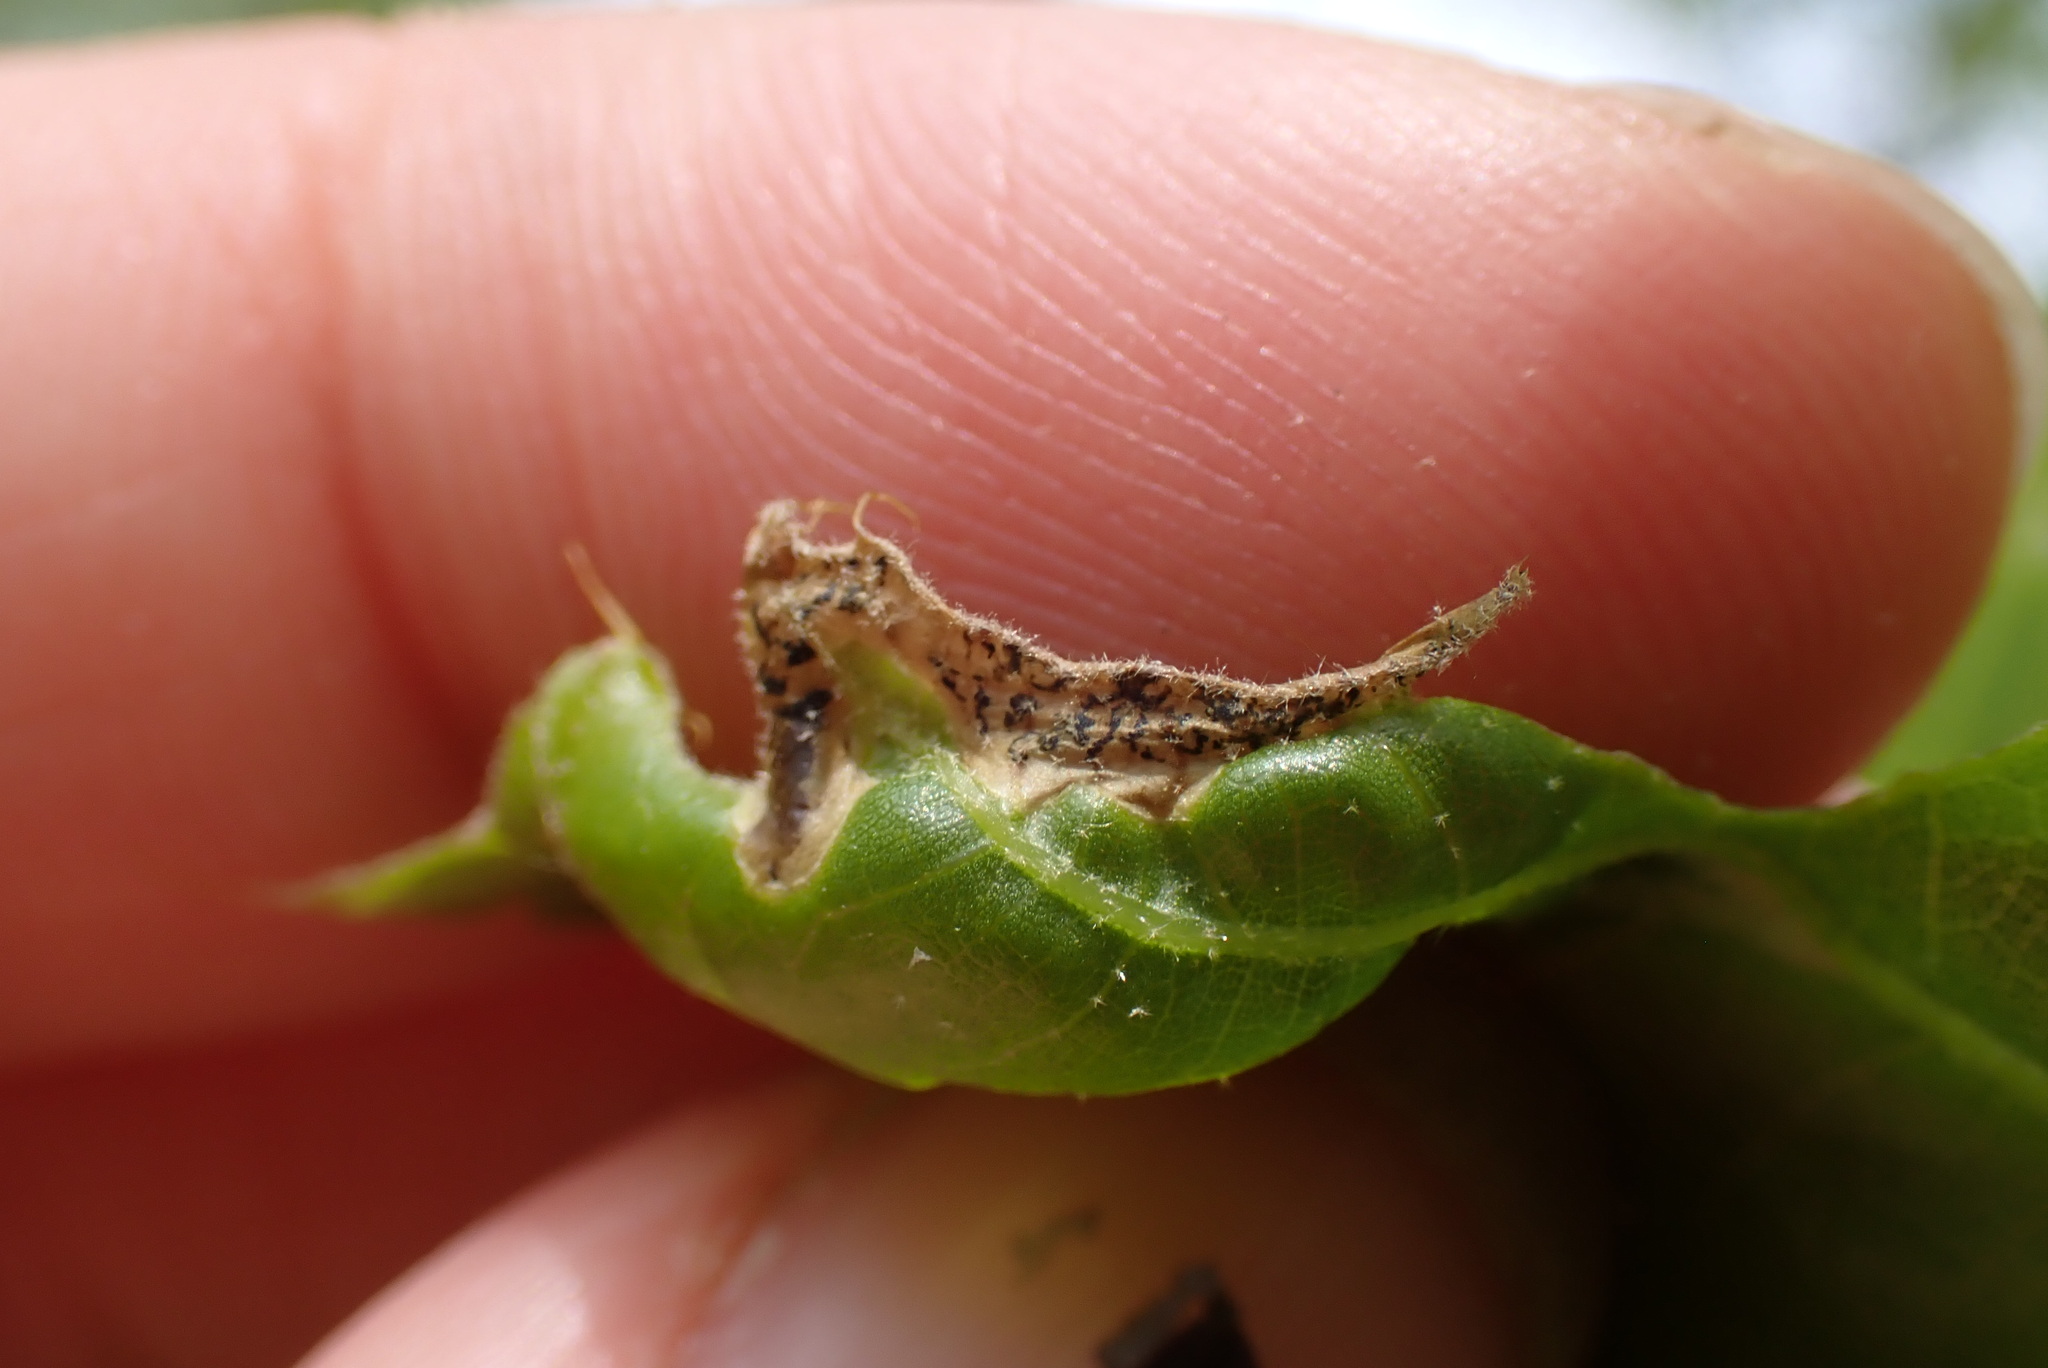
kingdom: Animalia
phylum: Arthropoda
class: Insecta
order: Diptera
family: Agromyzidae
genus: Japanagromyza
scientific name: Japanagromyza viridula
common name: Oak shothole leafminer
